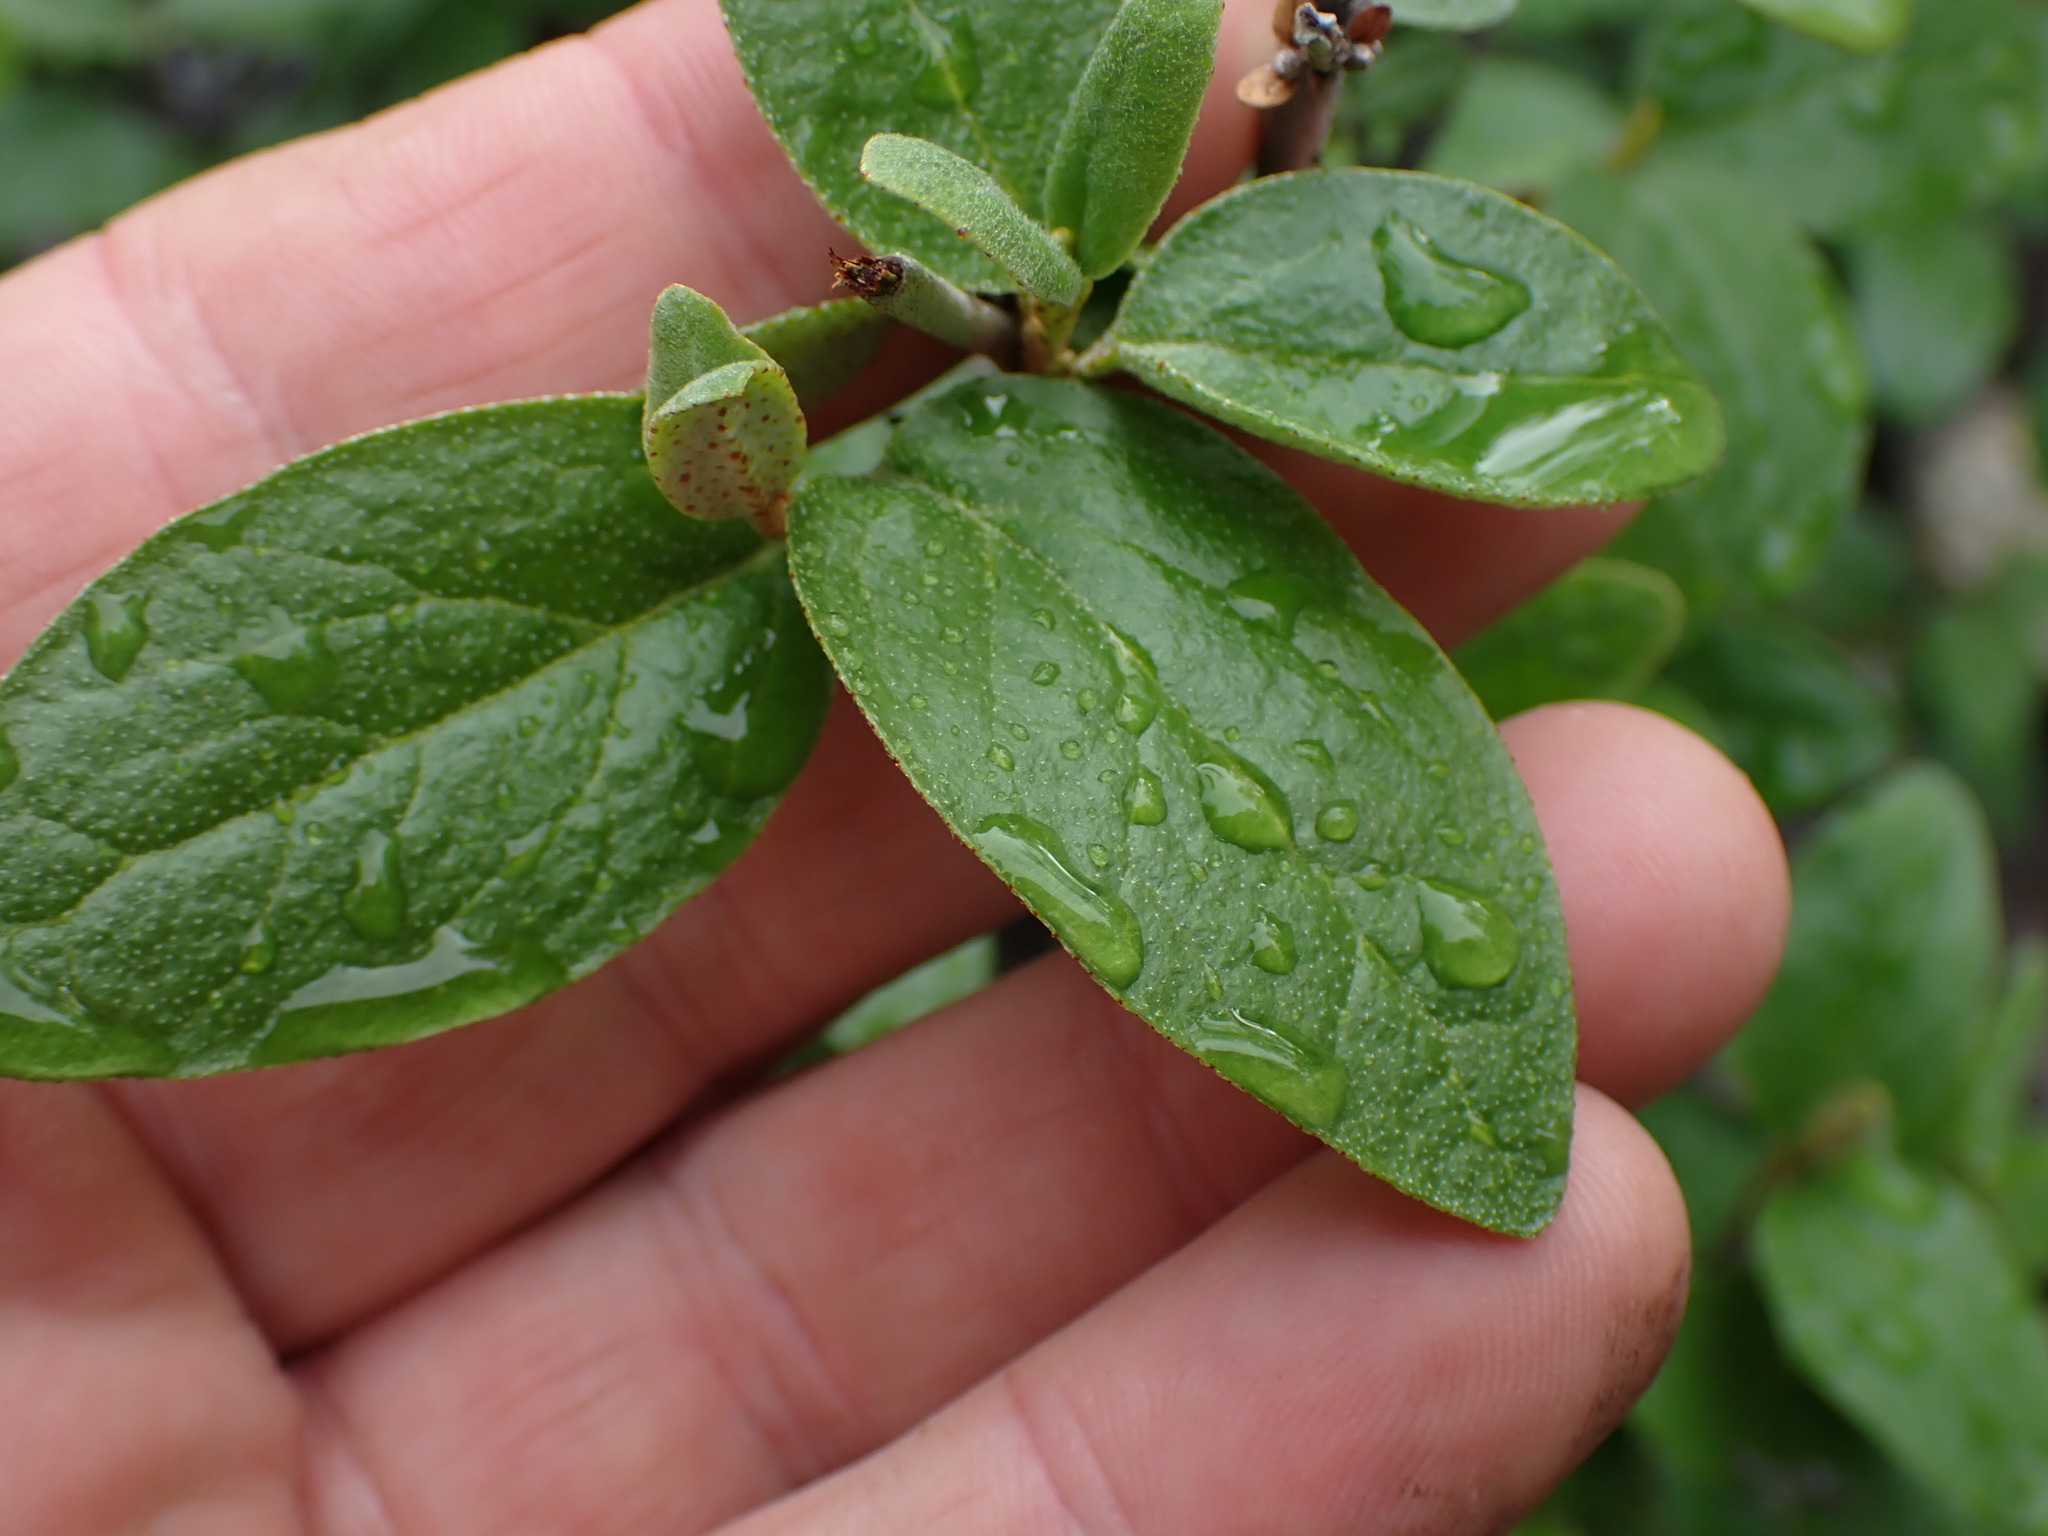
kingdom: Plantae
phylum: Tracheophyta
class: Magnoliopsida
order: Rosales
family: Elaeagnaceae
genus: Shepherdia
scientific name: Shepherdia canadensis
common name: Soapberry
